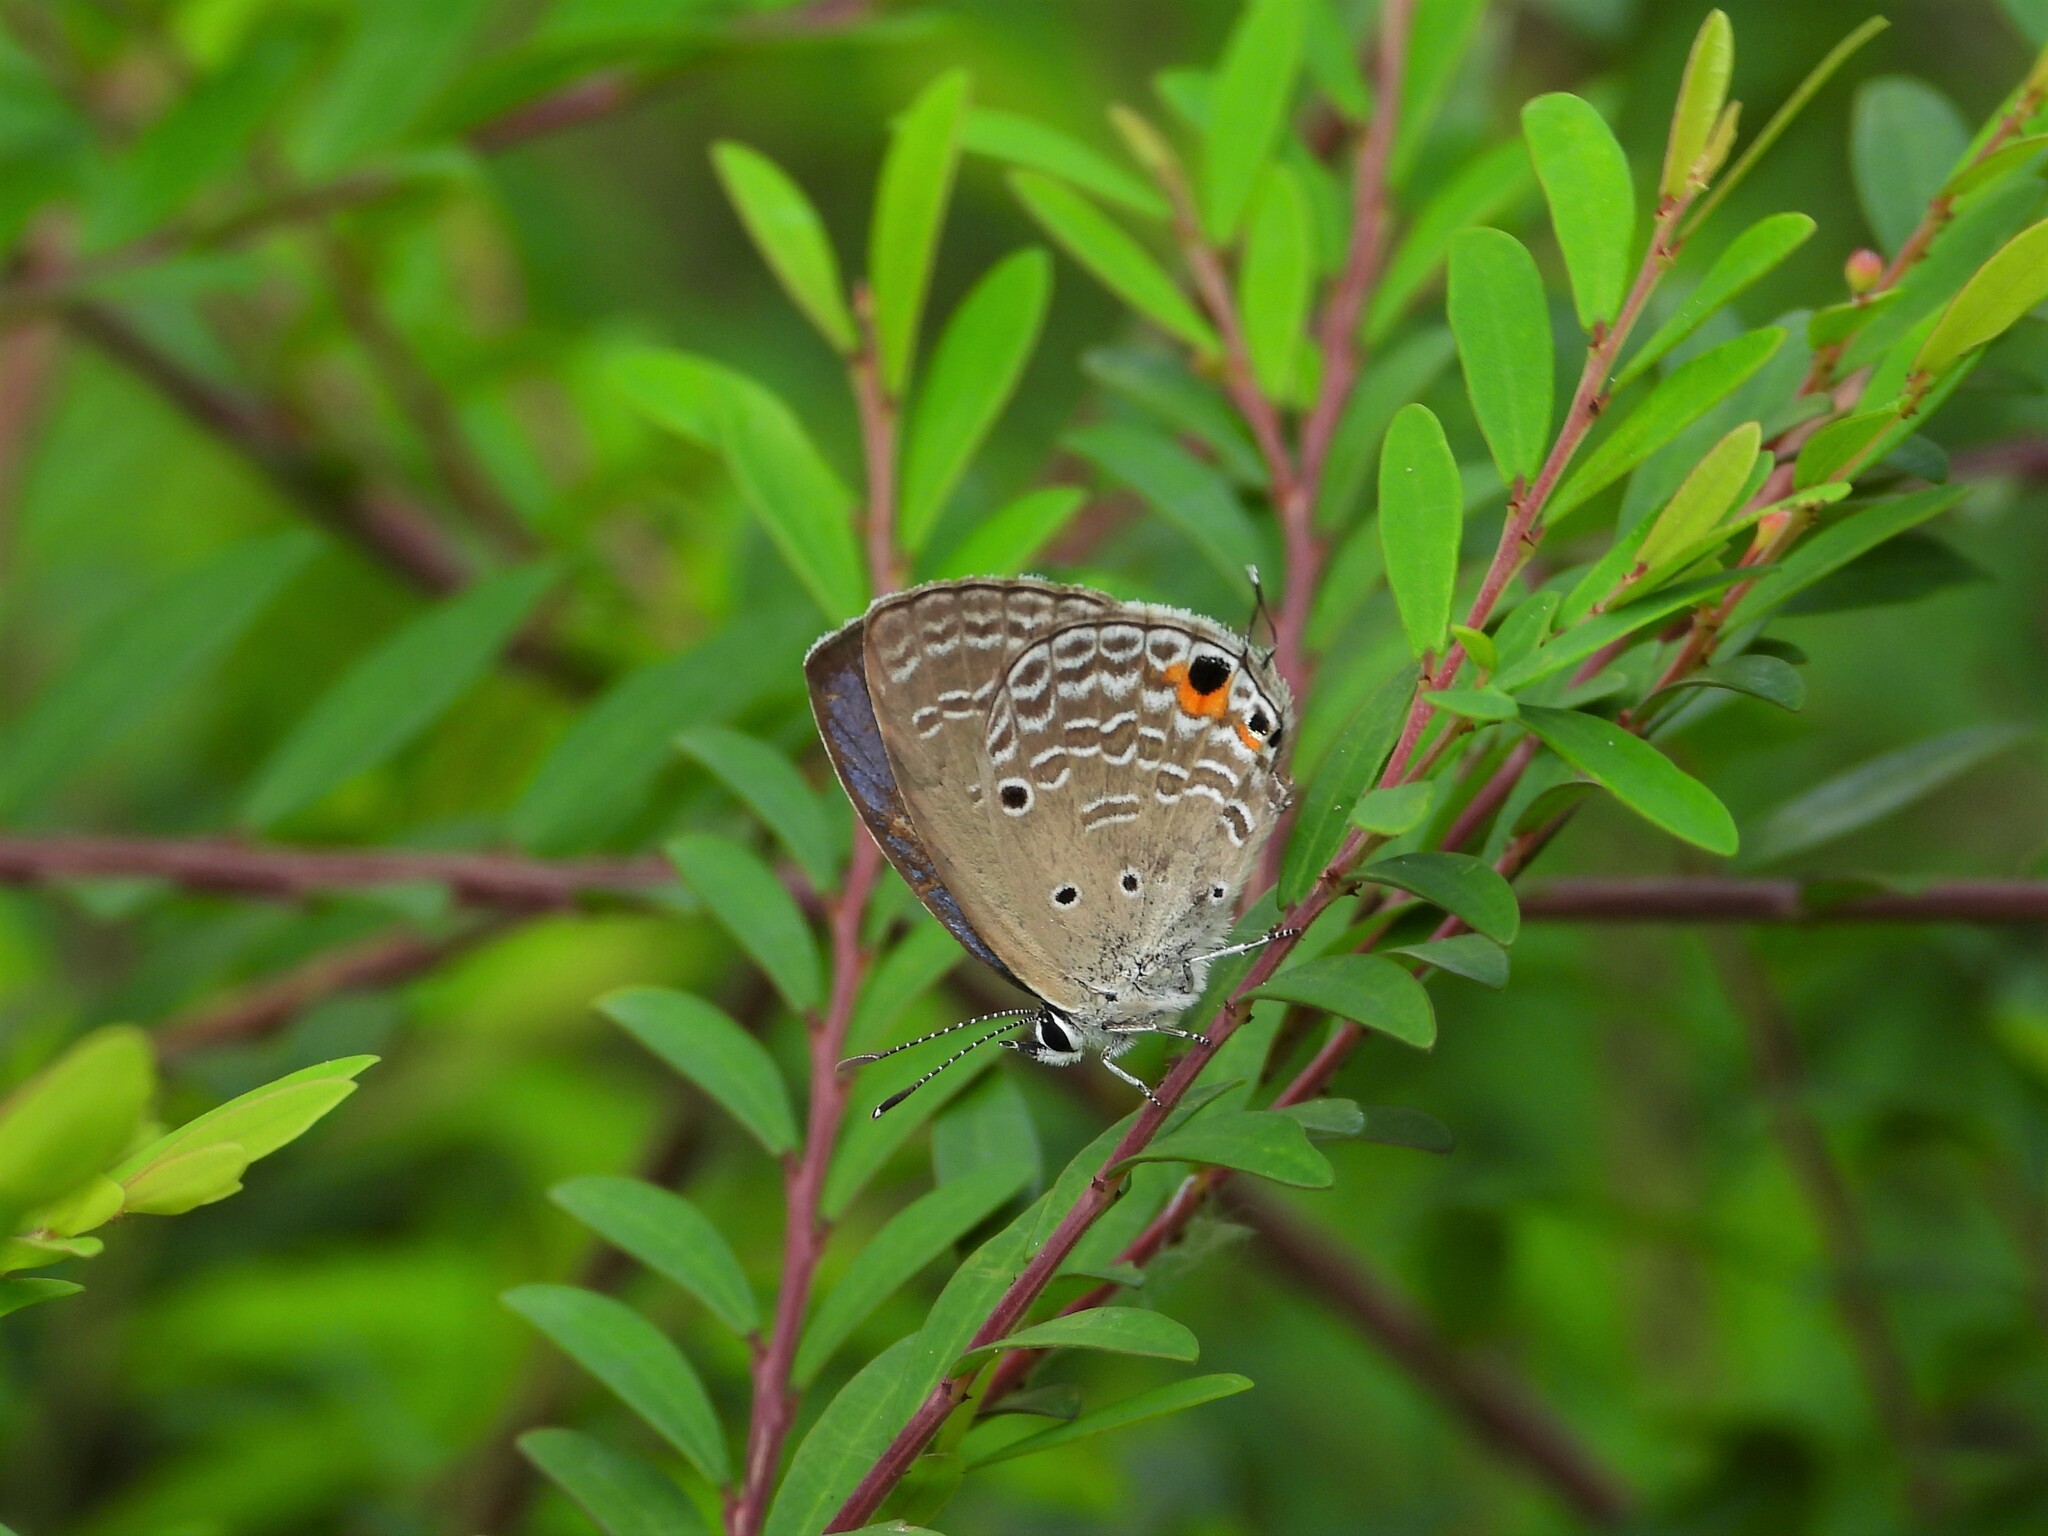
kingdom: Animalia
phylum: Arthropoda
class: Insecta
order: Lepidoptera
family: Lycaenidae
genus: Luthrodes
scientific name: Luthrodes pandava
